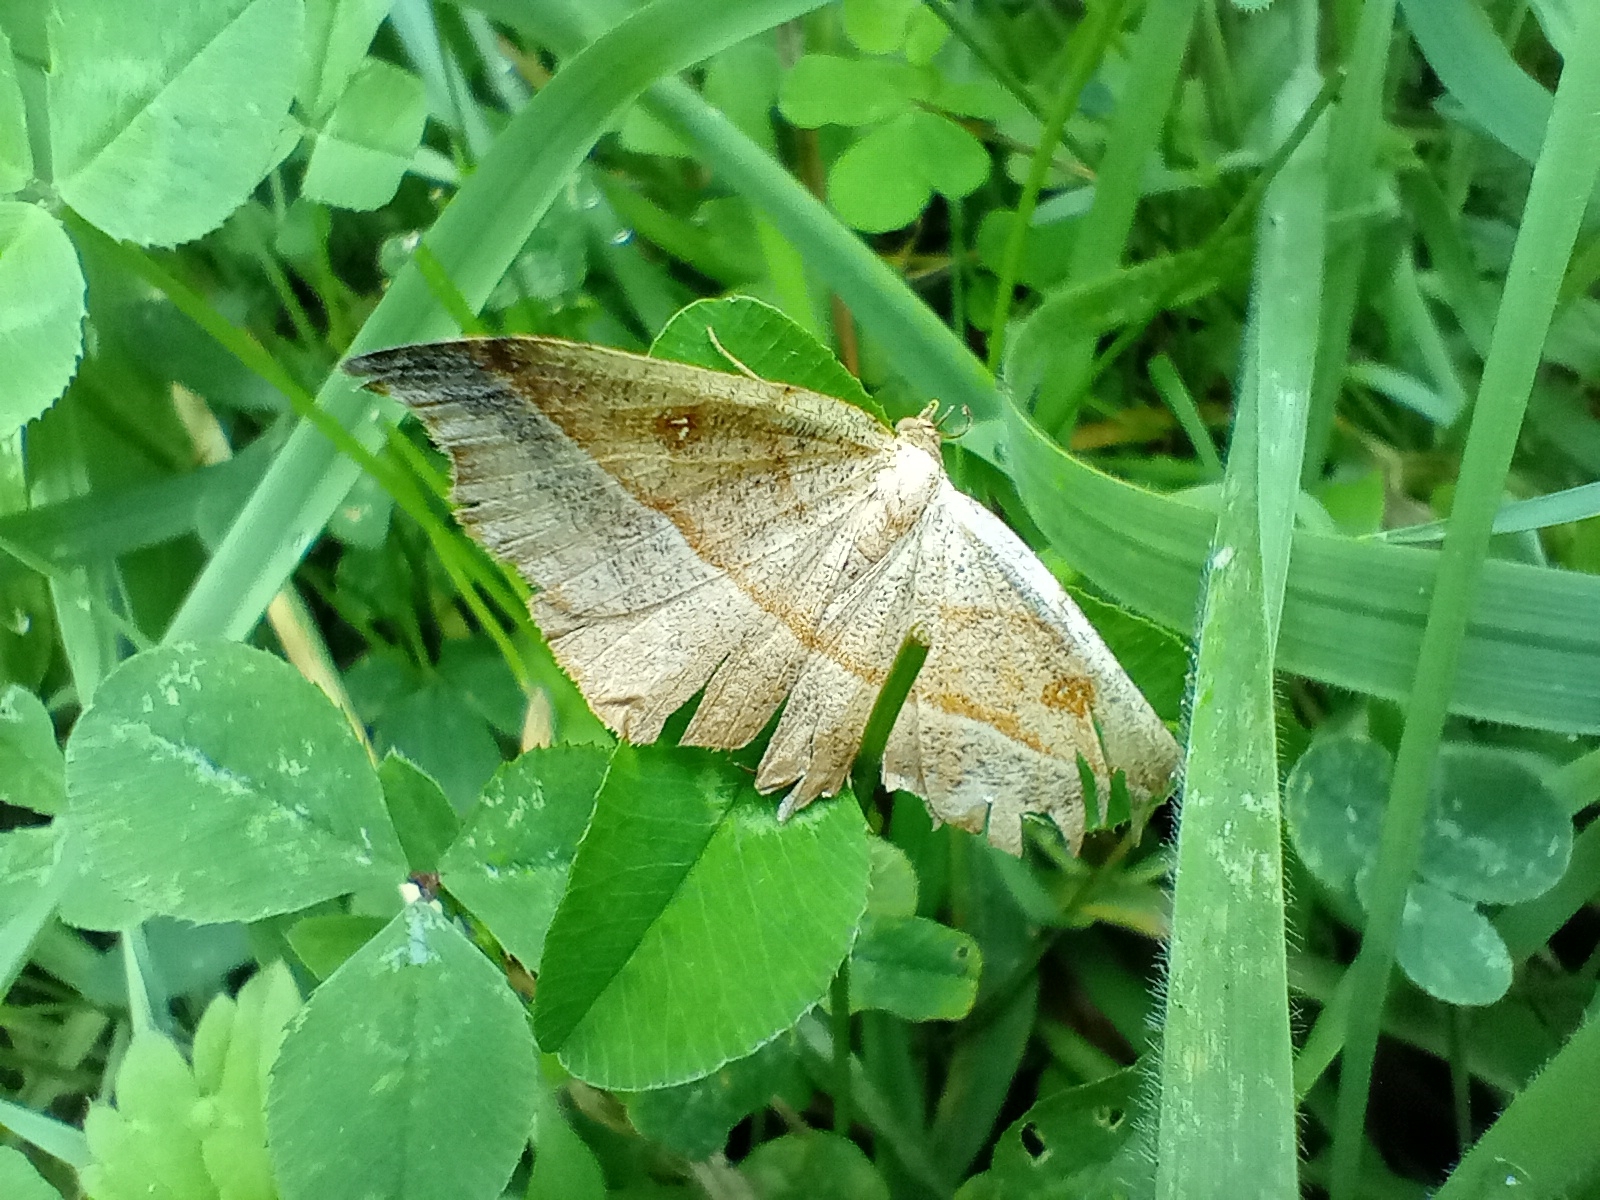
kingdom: Animalia
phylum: Arthropoda
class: Insecta
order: Lepidoptera
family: Geometridae
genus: Sarisa
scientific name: Sarisa muriferata
